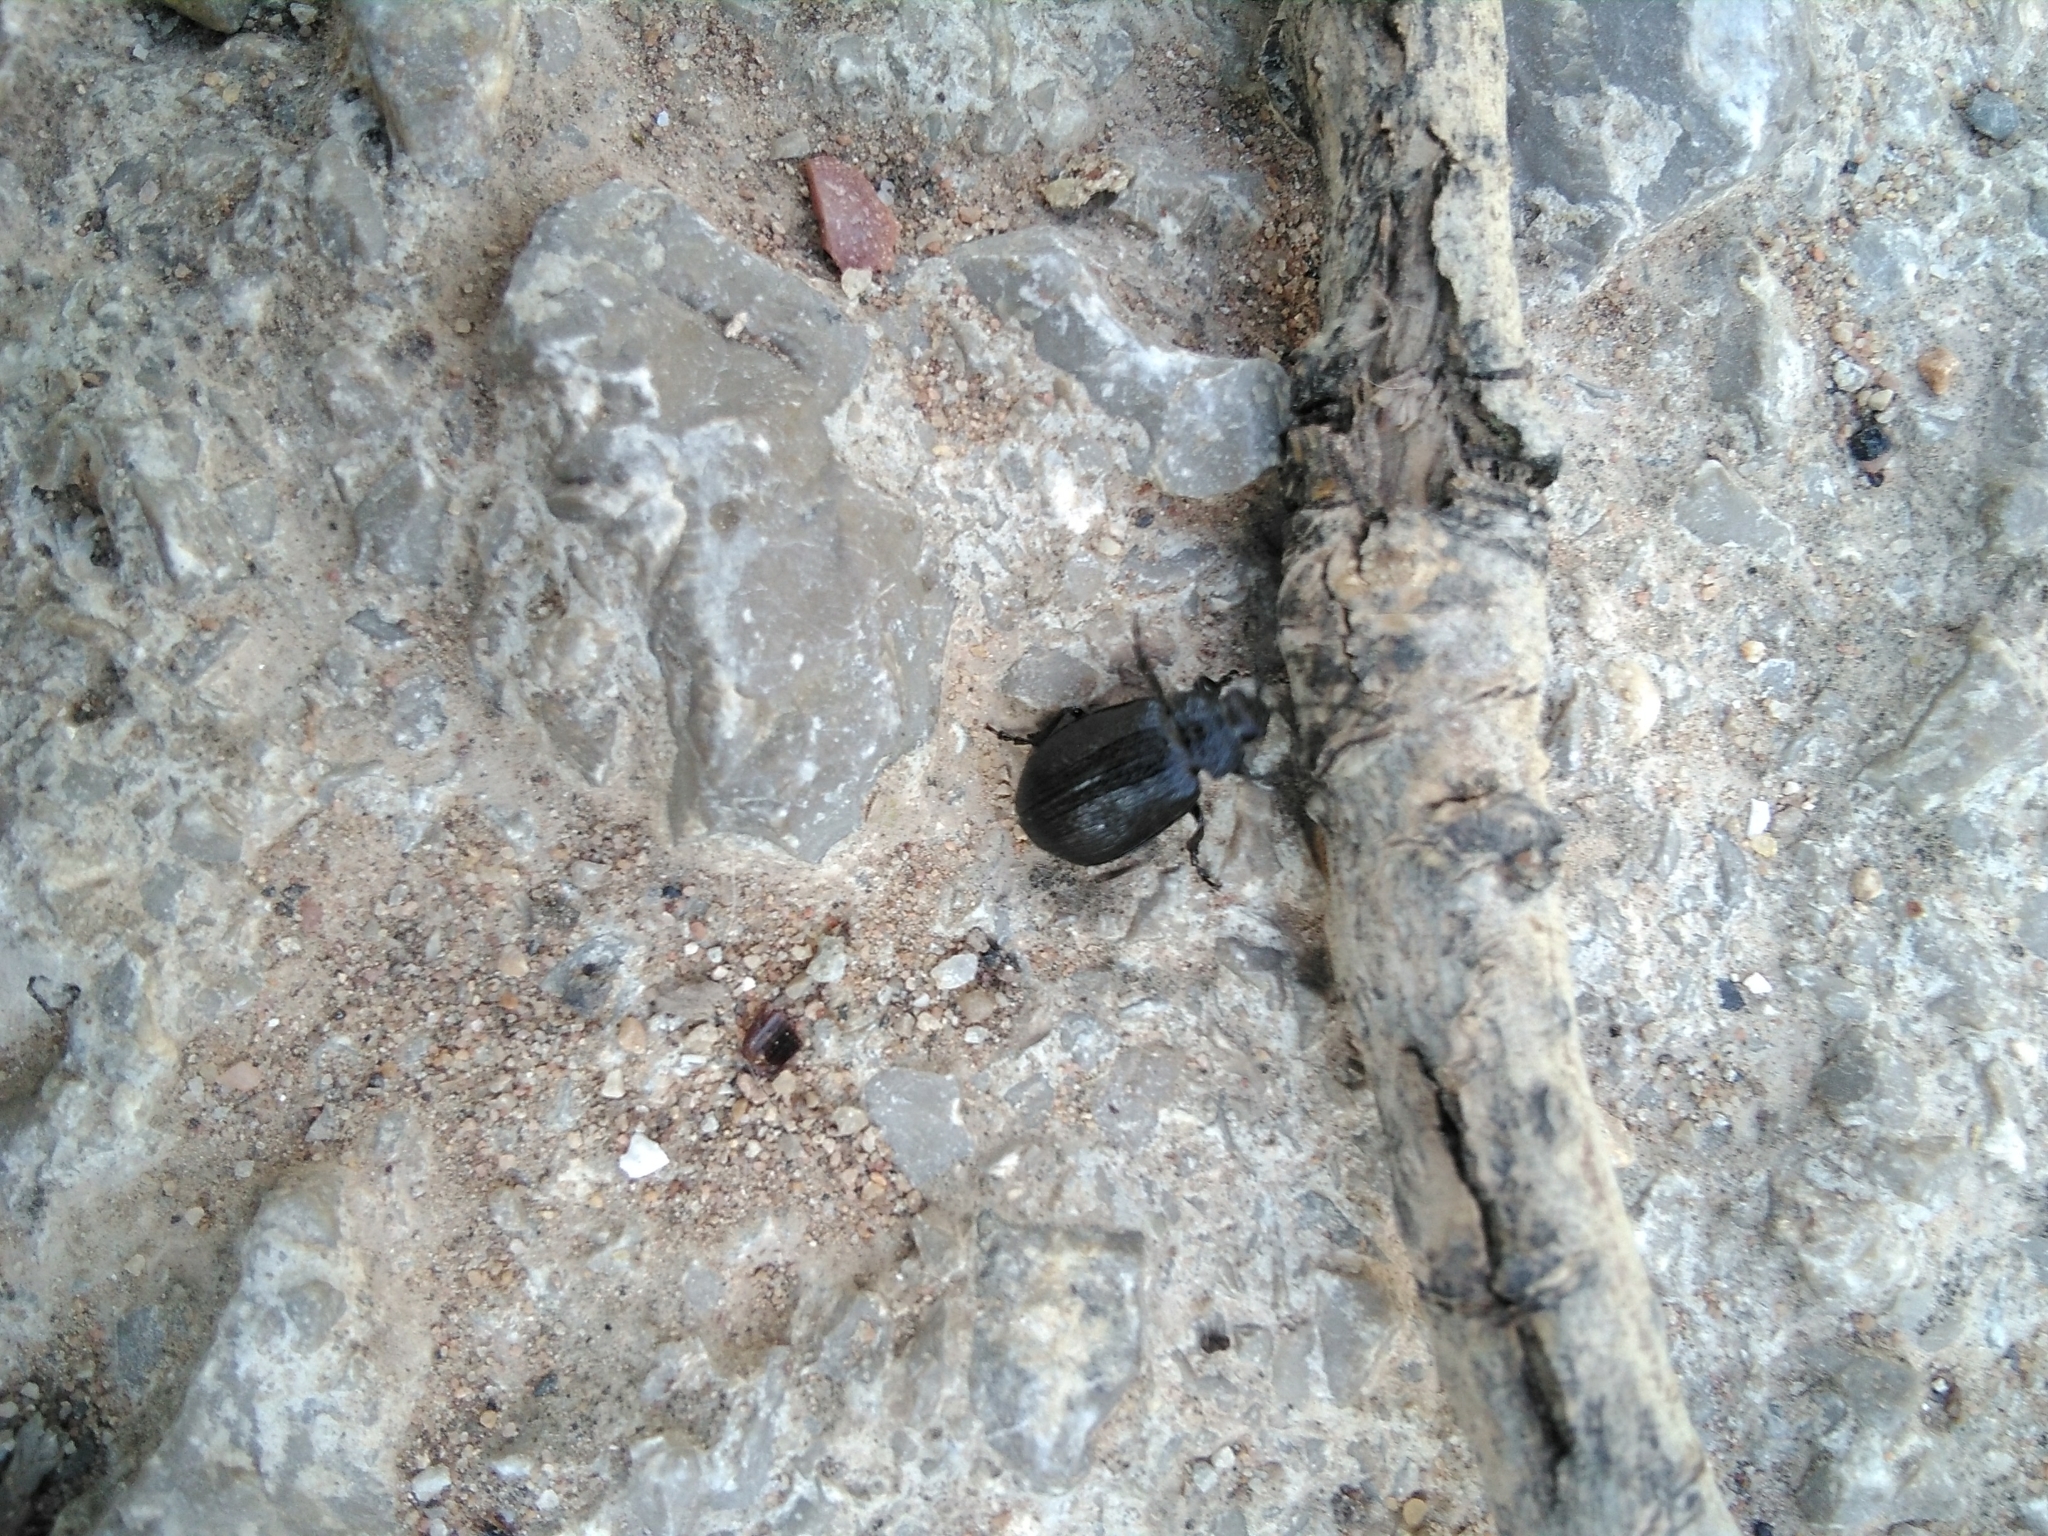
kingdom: Animalia
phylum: Arthropoda
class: Insecta
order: Coleoptera
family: Chrysomelidae
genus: Galeruca
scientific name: Galeruca tanaceti
